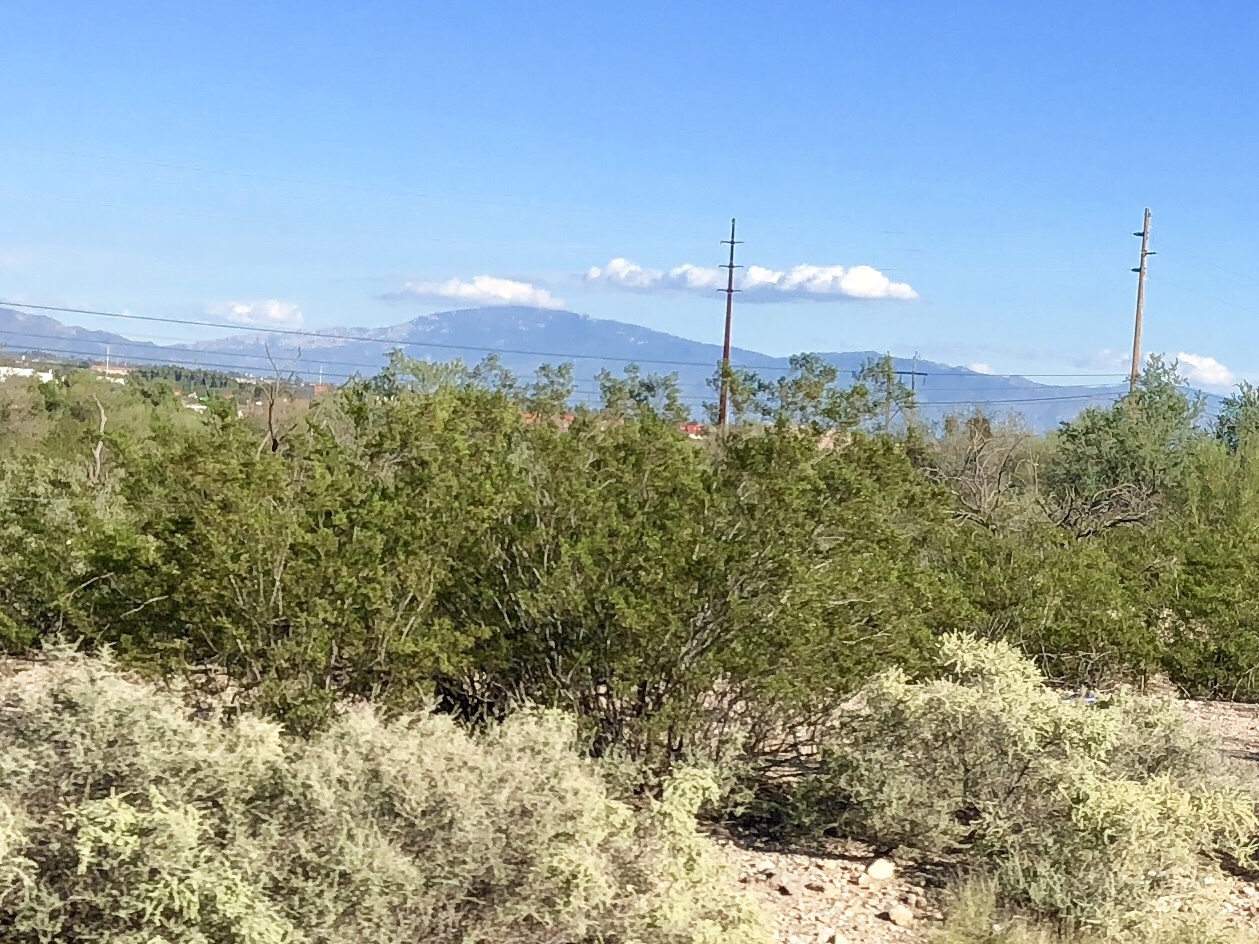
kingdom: Plantae
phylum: Tracheophyta
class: Magnoliopsida
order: Zygophyllales
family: Zygophyllaceae
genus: Larrea
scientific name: Larrea tridentata
